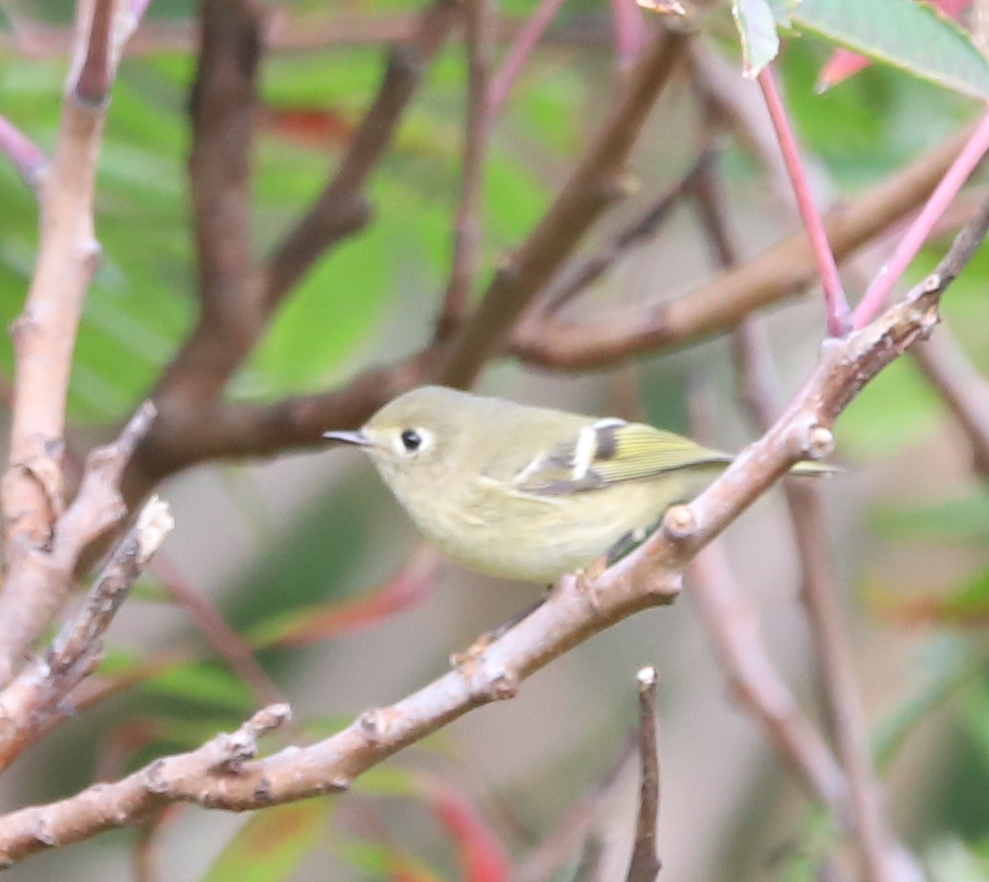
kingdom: Animalia
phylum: Chordata
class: Aves
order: Passeriformes
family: Regulidae
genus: Regulus
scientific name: Regulus calendula
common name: Ruby-crowned kinglet
